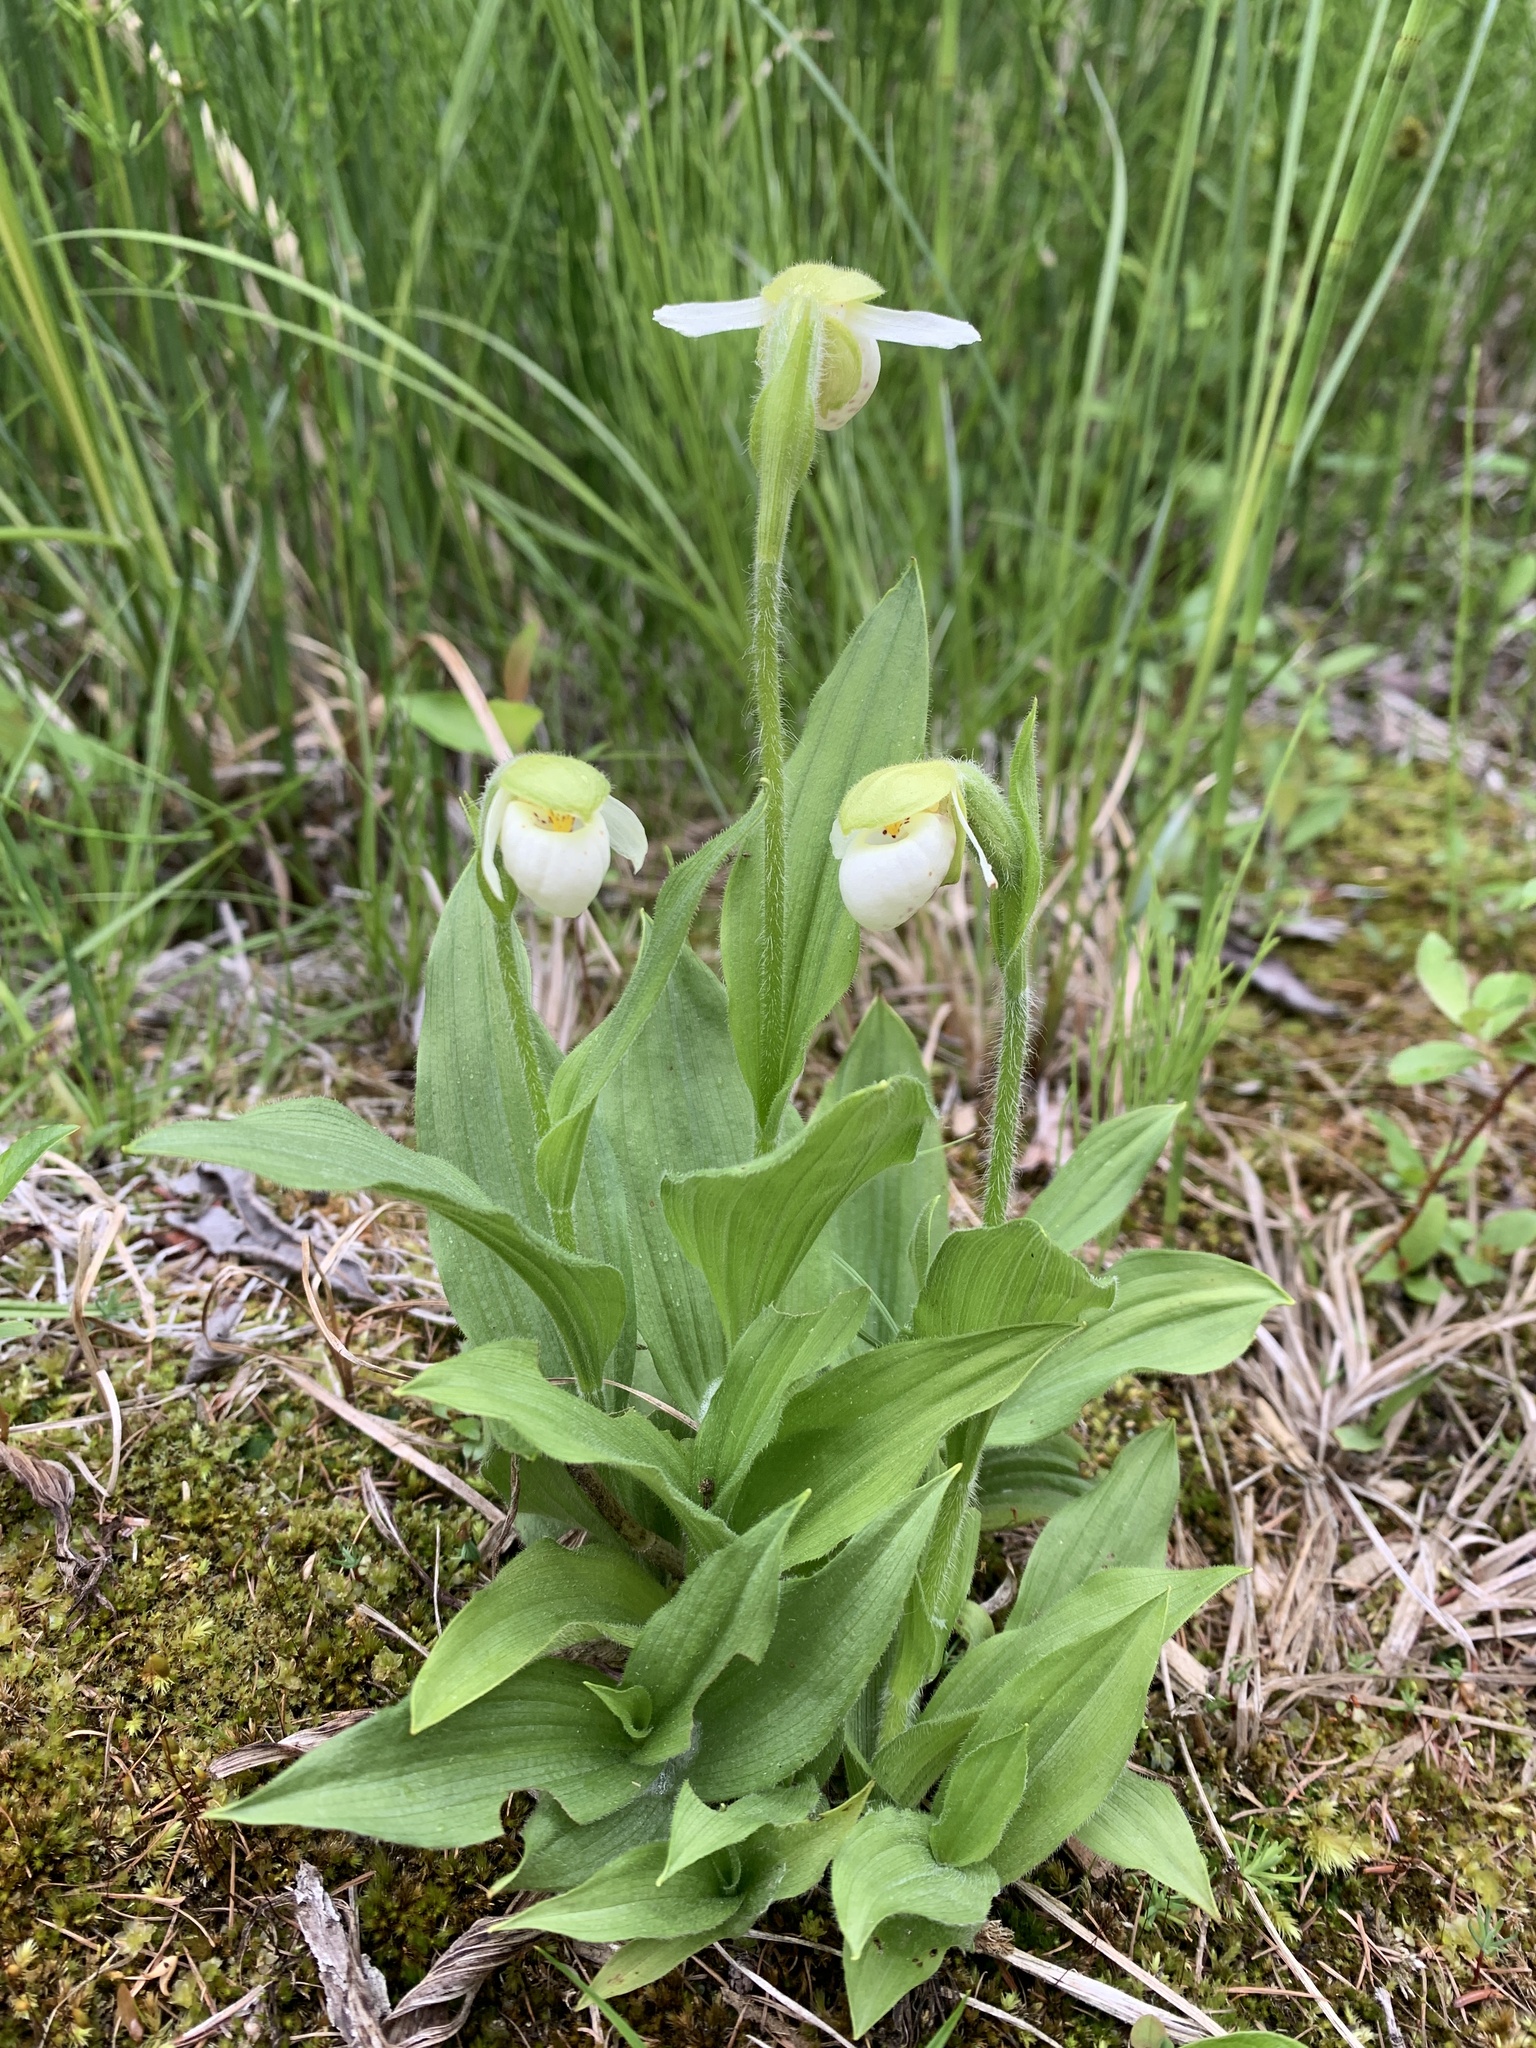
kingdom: Plantae
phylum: Tracheophyta
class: Liliopsida
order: Asparagales
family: Orchidaceae
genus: Cypripedium
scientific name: Cypripedium passerinum
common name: Sparrow's-egg lady's-slipper
